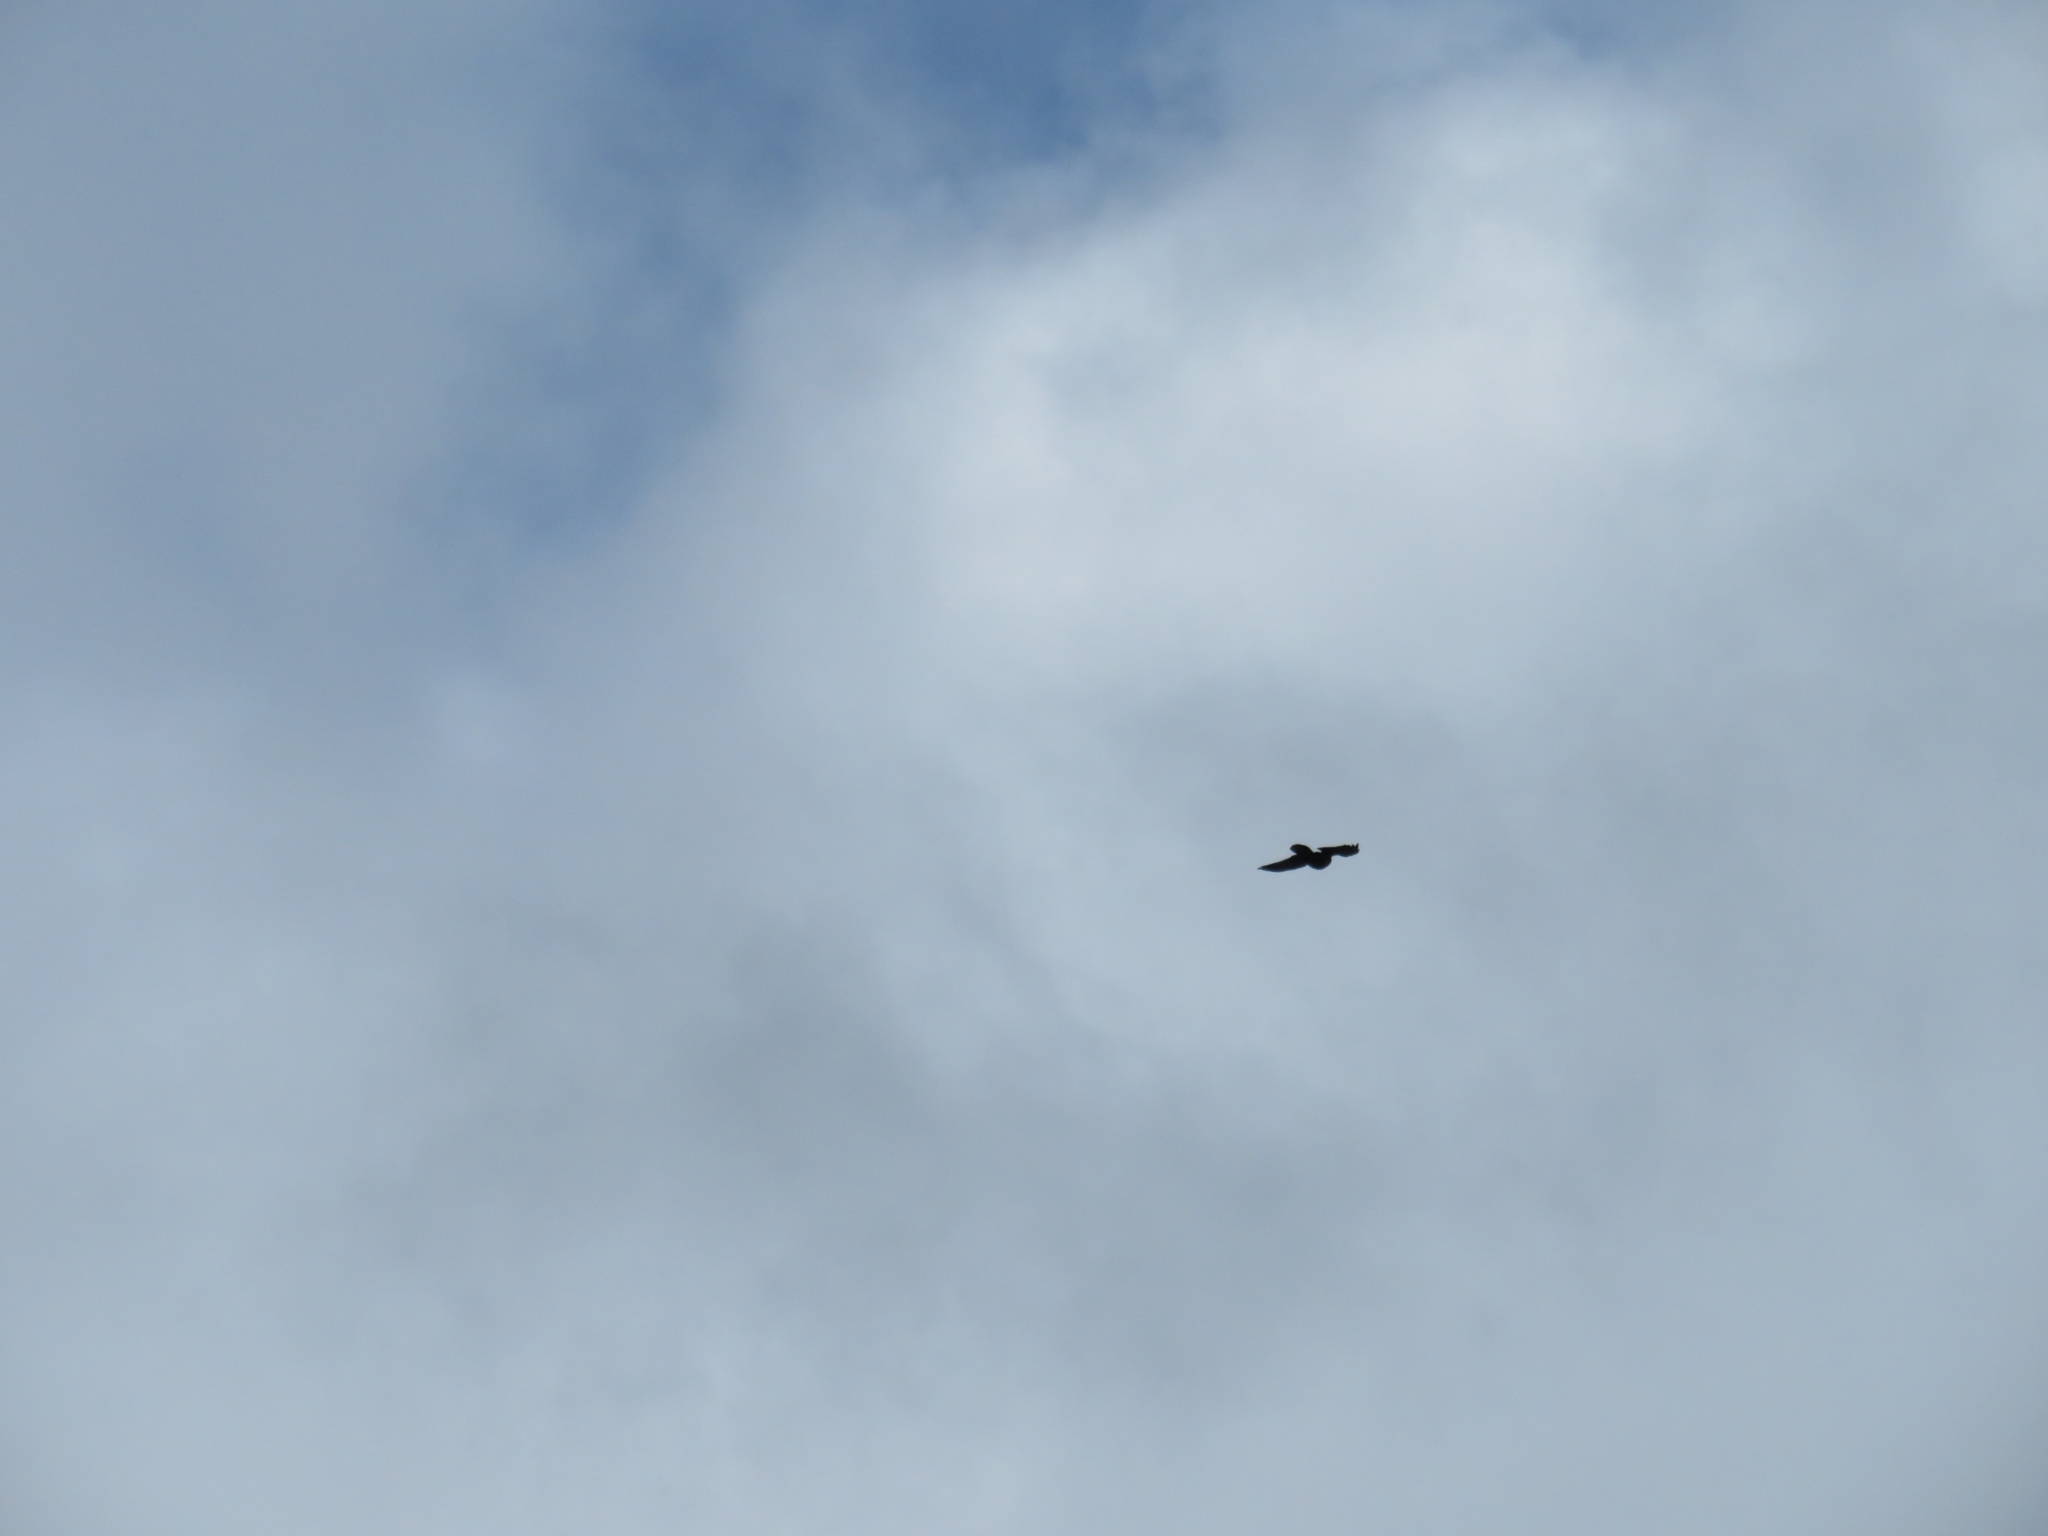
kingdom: Animalia
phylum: Chordata
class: Aves
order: Passeriformes
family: Corvidae
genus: Corvus
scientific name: Corvus corax
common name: Common raven
